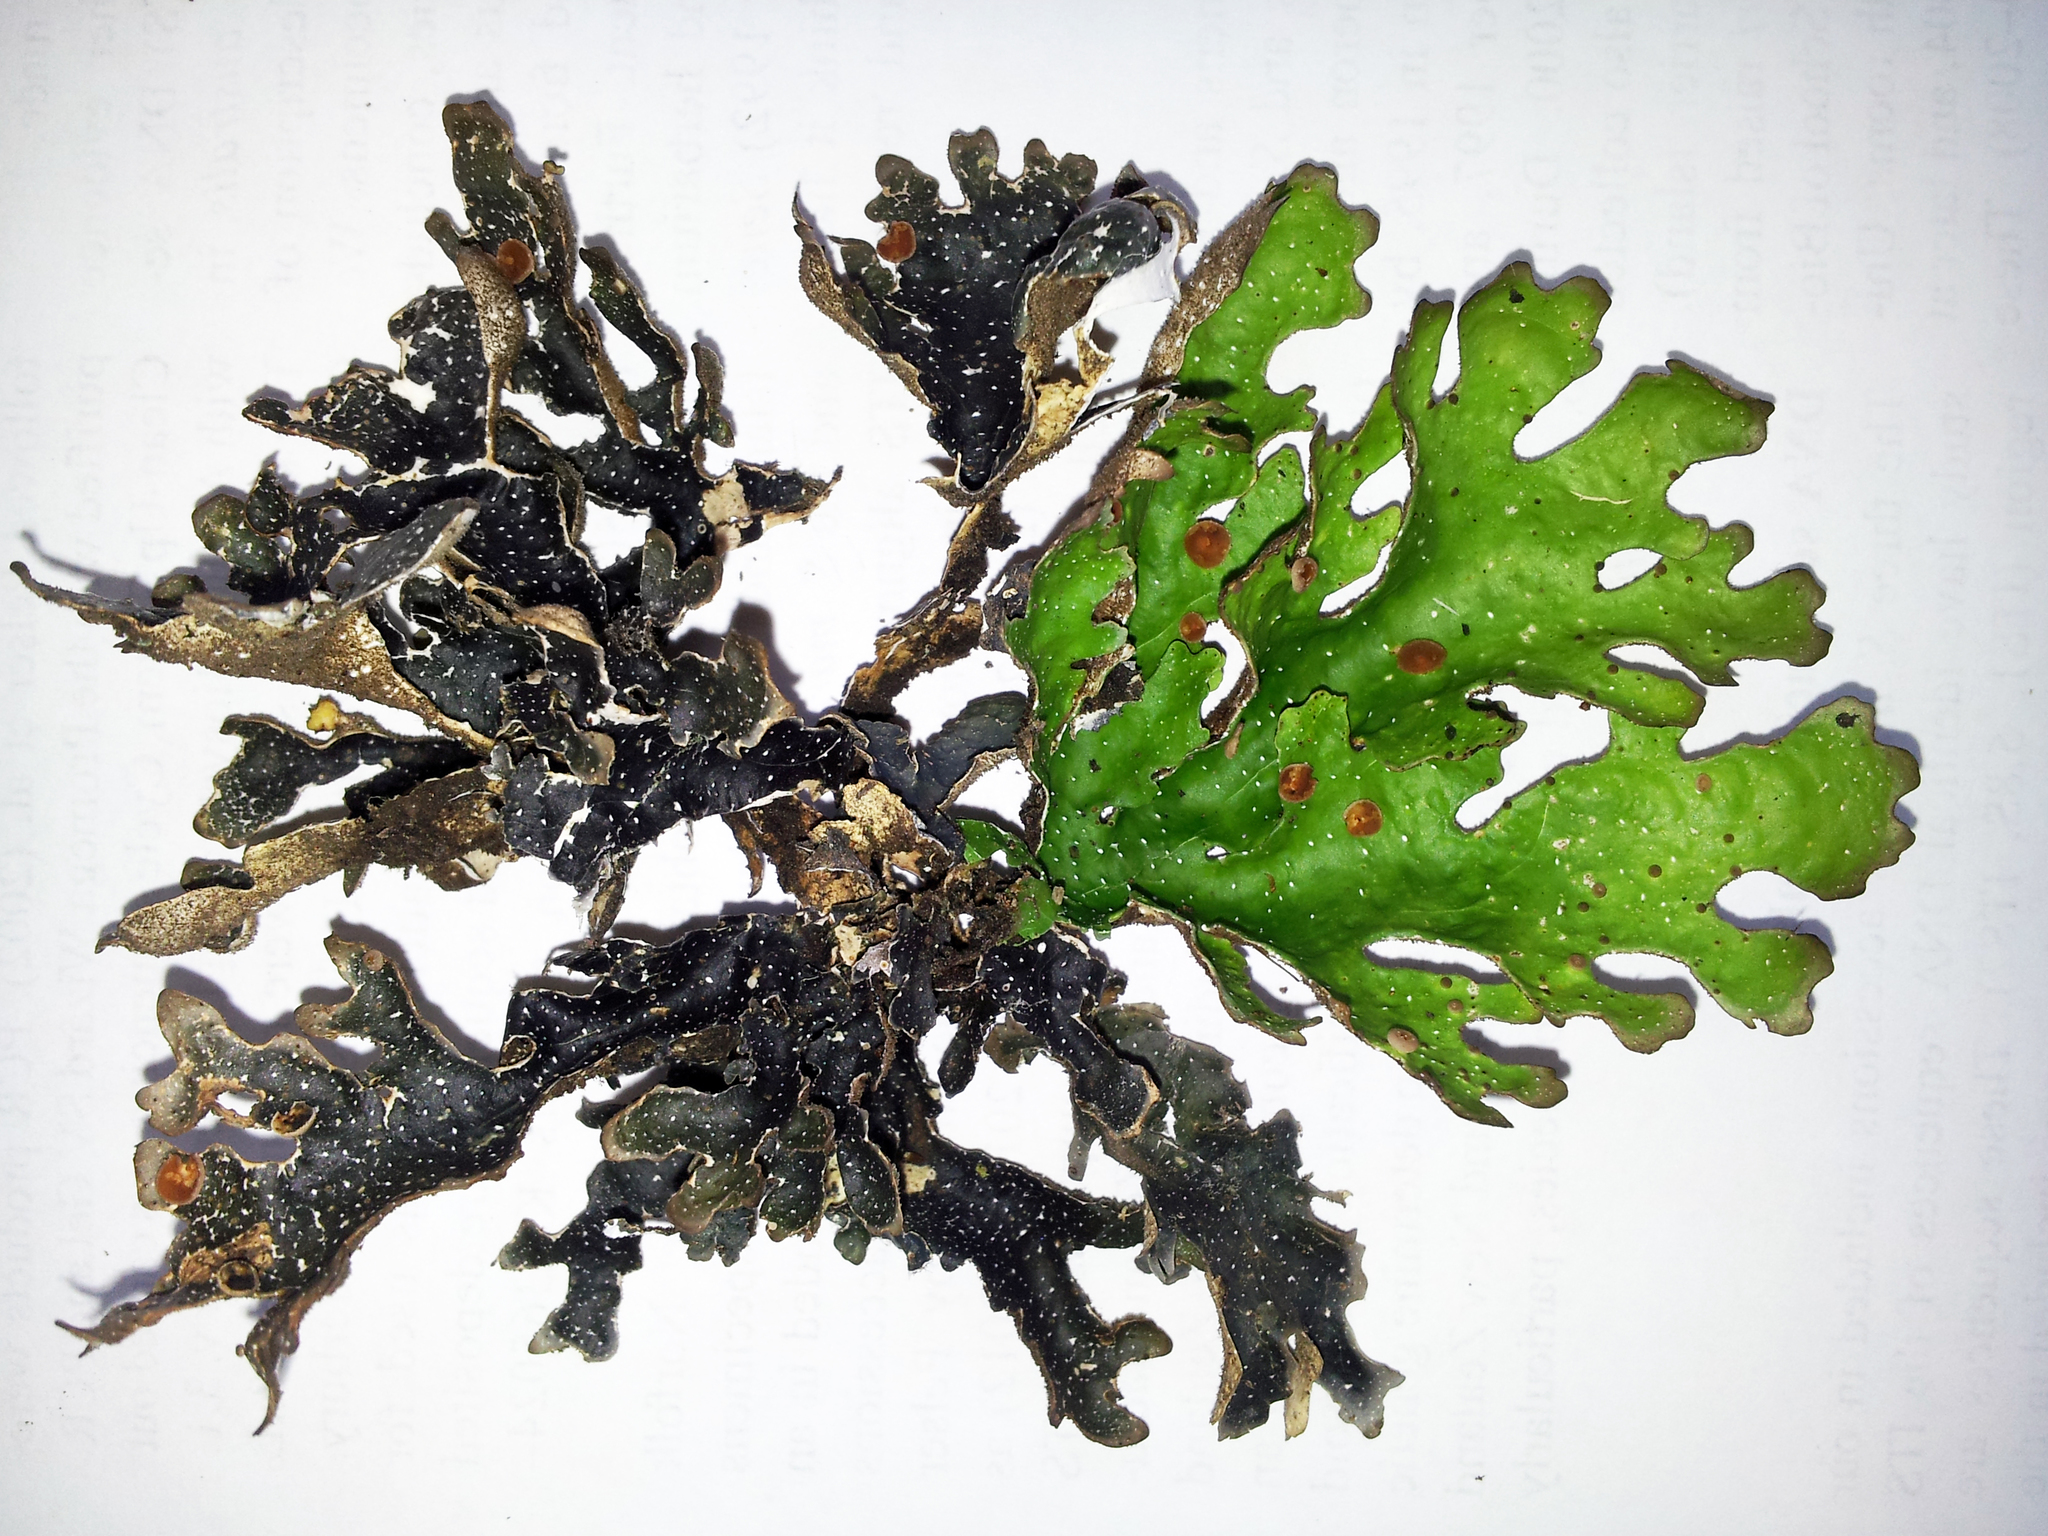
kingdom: Fungi
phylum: Ascomycota
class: Lecanoromycetes
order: Peltigerales
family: Lobariaceae
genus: Pseudocyphellaria
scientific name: Pseudocyphellaria lividofusca
